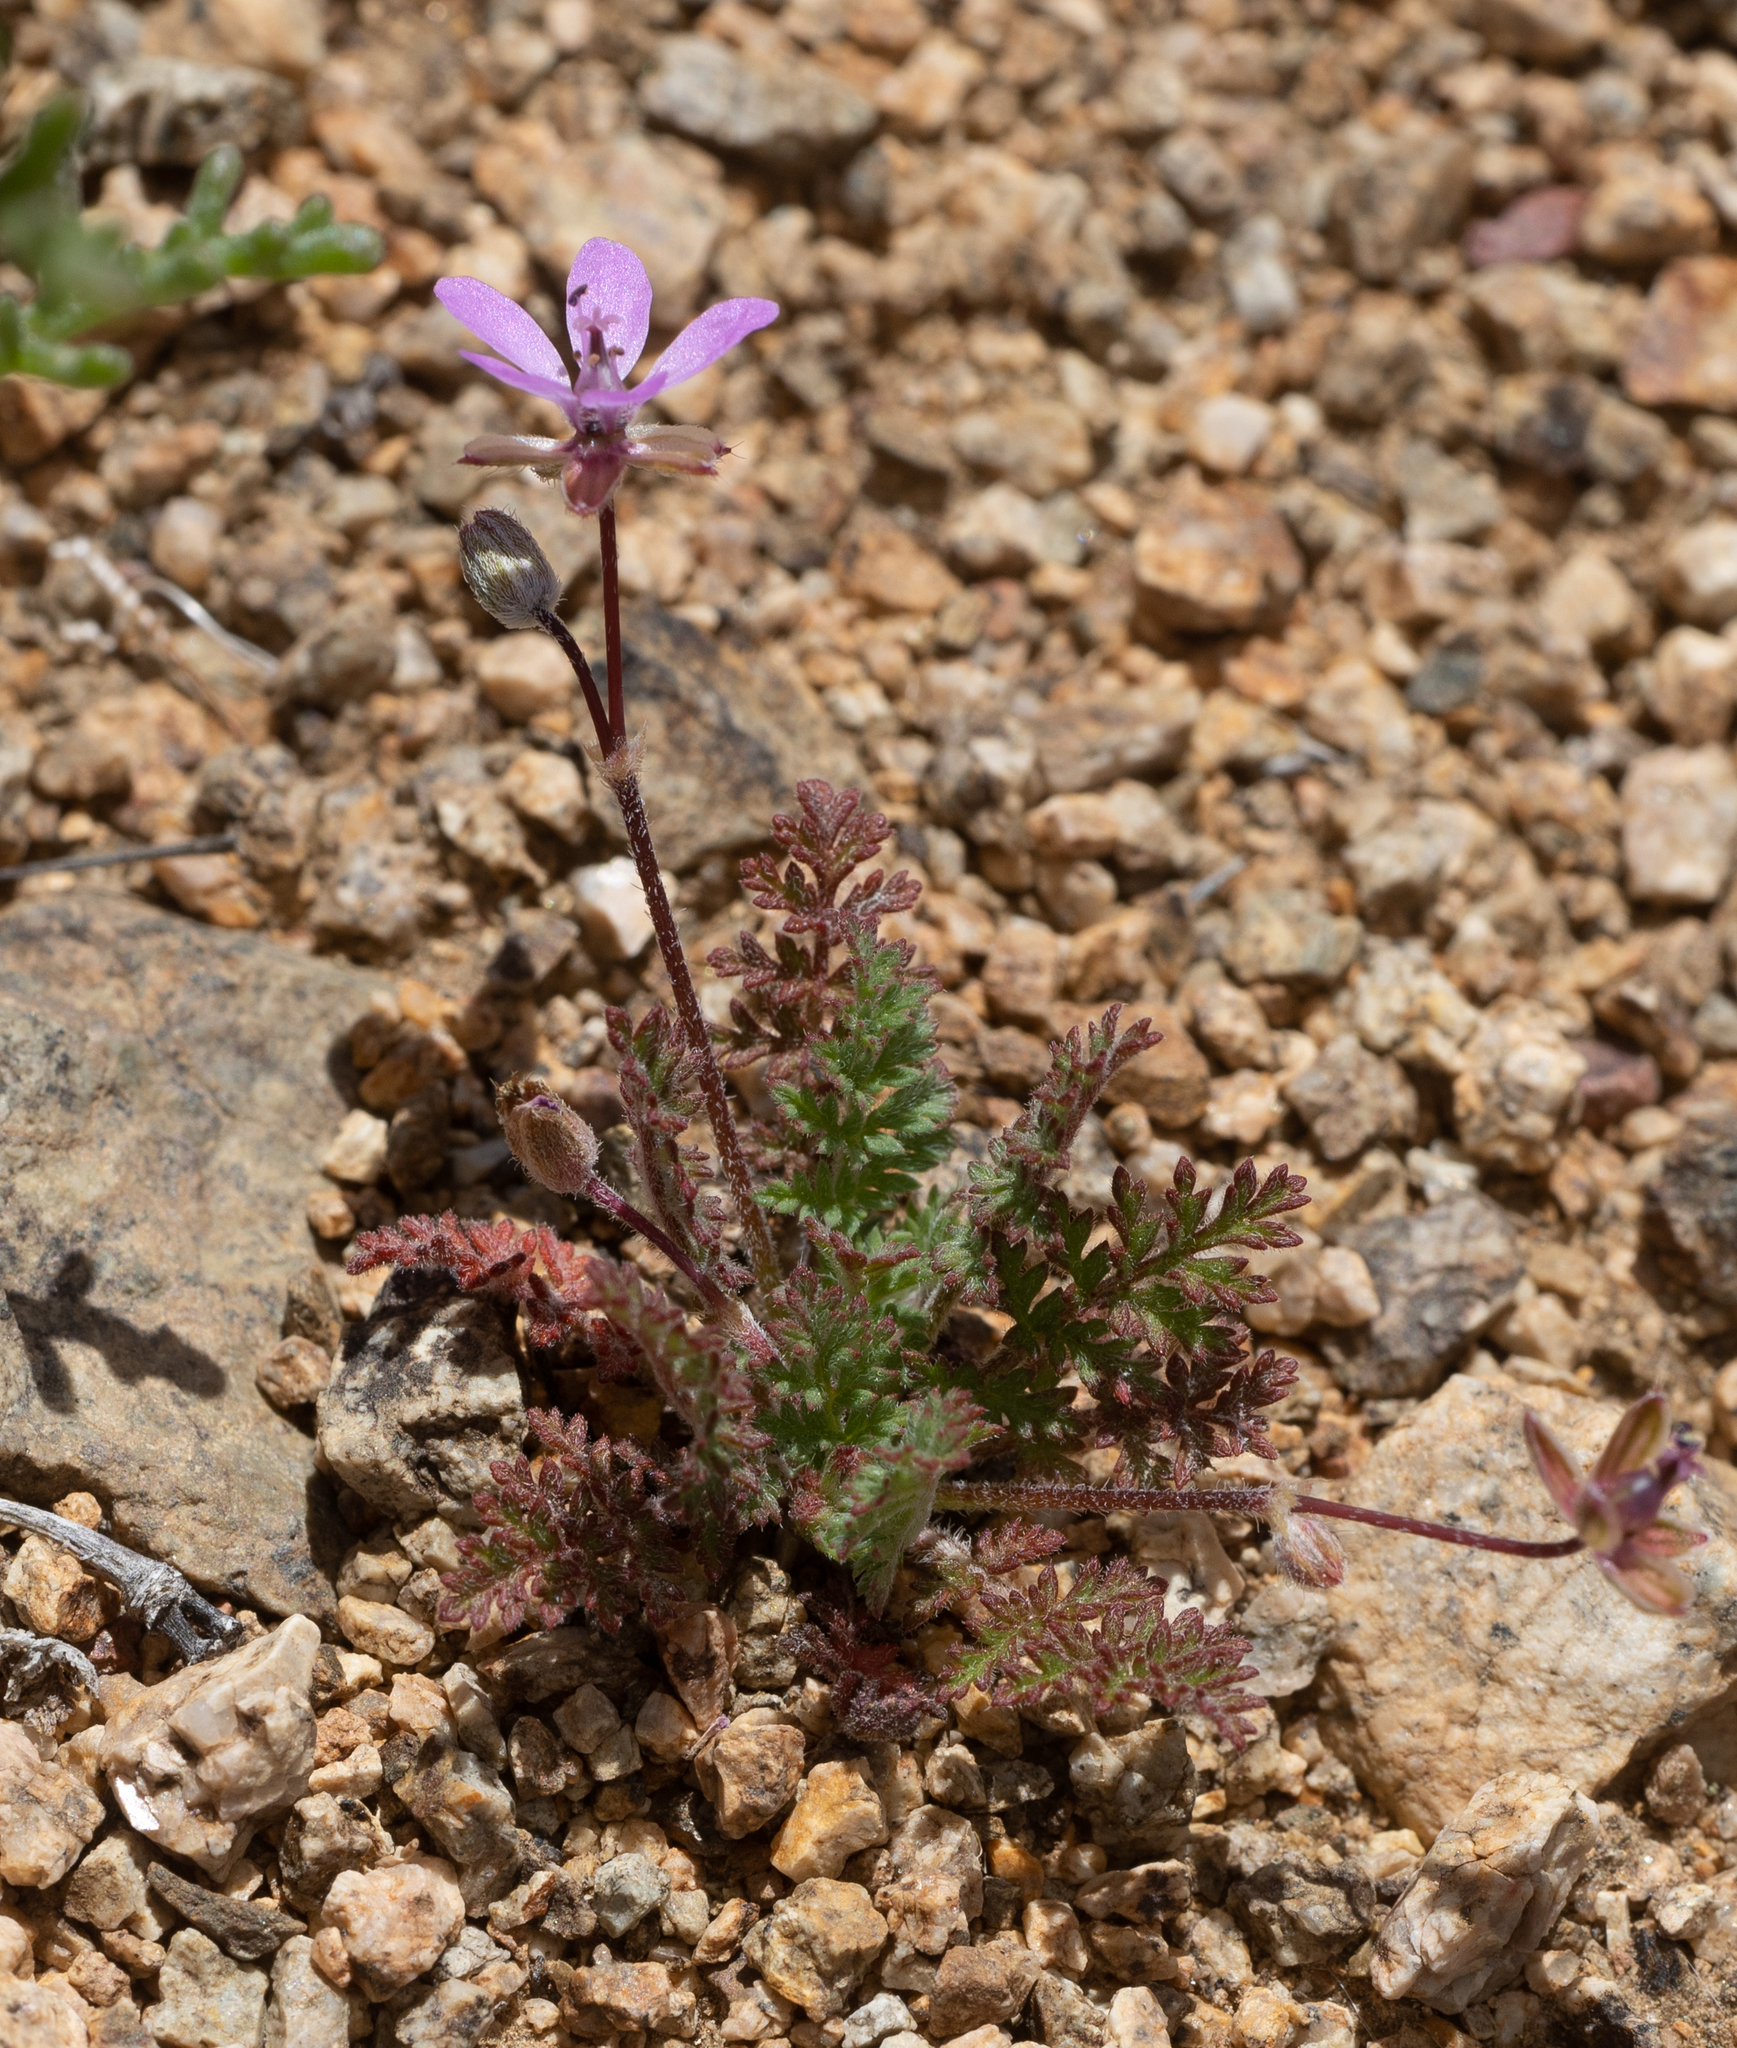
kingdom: Plantae
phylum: Tracheophyta
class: Magnoliopsida
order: Geraniales
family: Geraniaceae
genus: Erodium
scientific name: Erodium cicutarium
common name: Common stork's-bill
